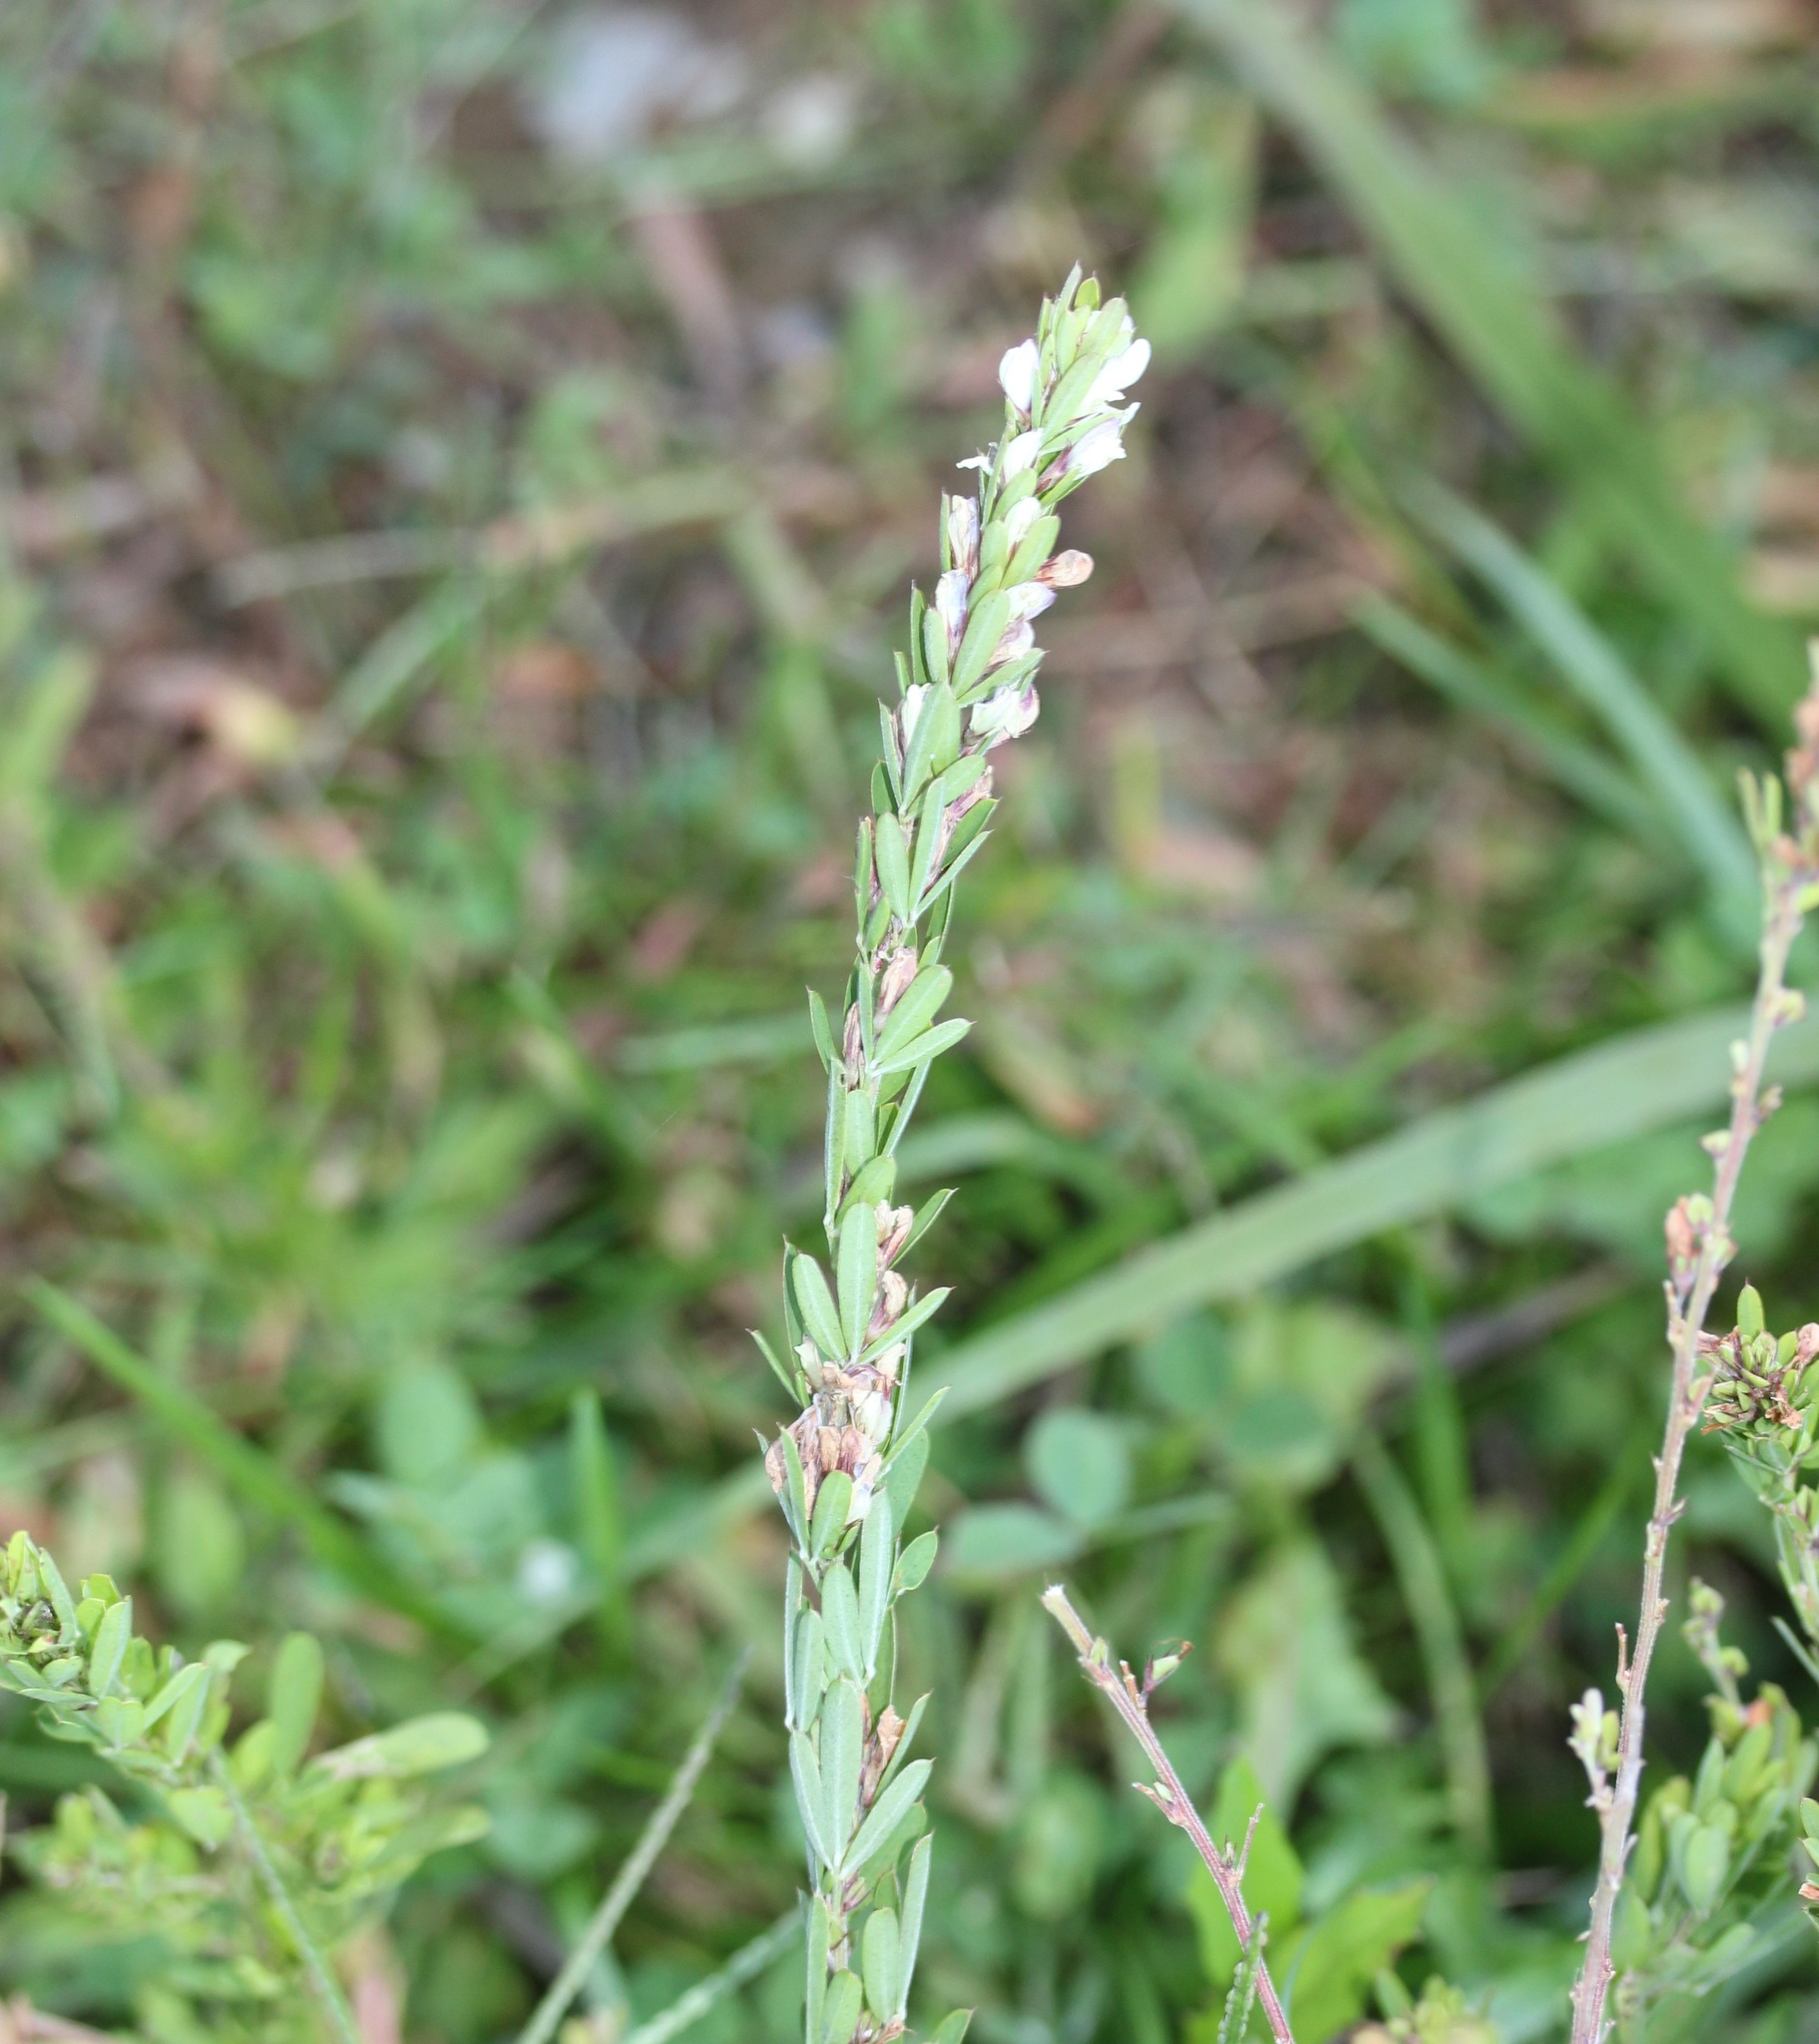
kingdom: Plantae
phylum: Tracheophyta
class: Magnoliopsida
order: Fabales
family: Fabaceae
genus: Lespedeza
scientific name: Lespedeza cuneata
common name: Chinese bush-clover
